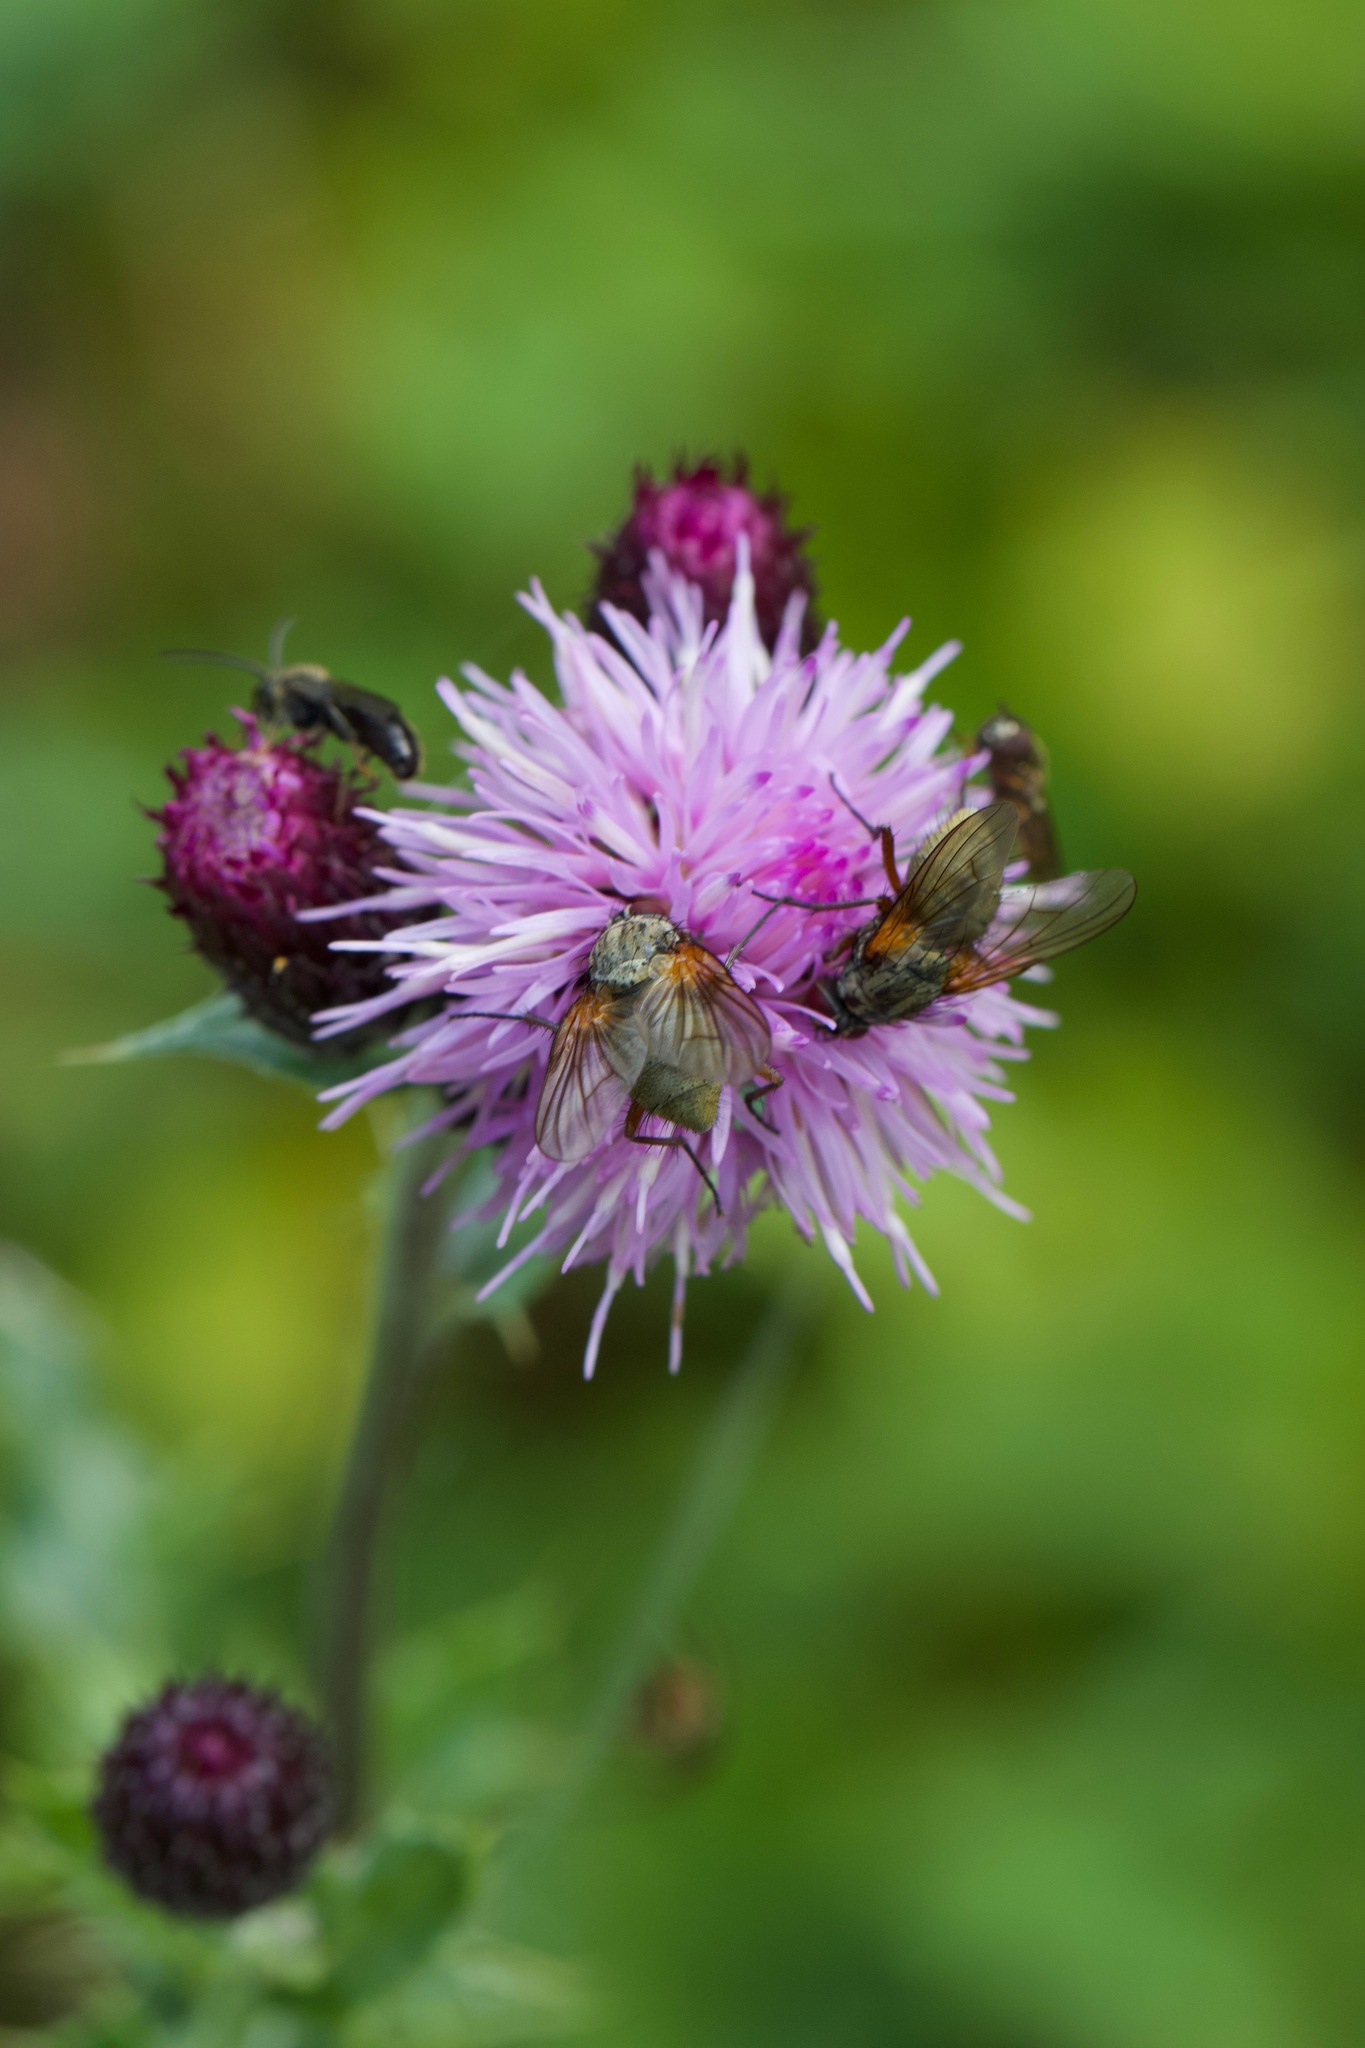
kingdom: Animalia
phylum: Arthropoda
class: Insecta
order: Diptera
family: Muscidae
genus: Phaonia
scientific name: Phaonia angelicae
